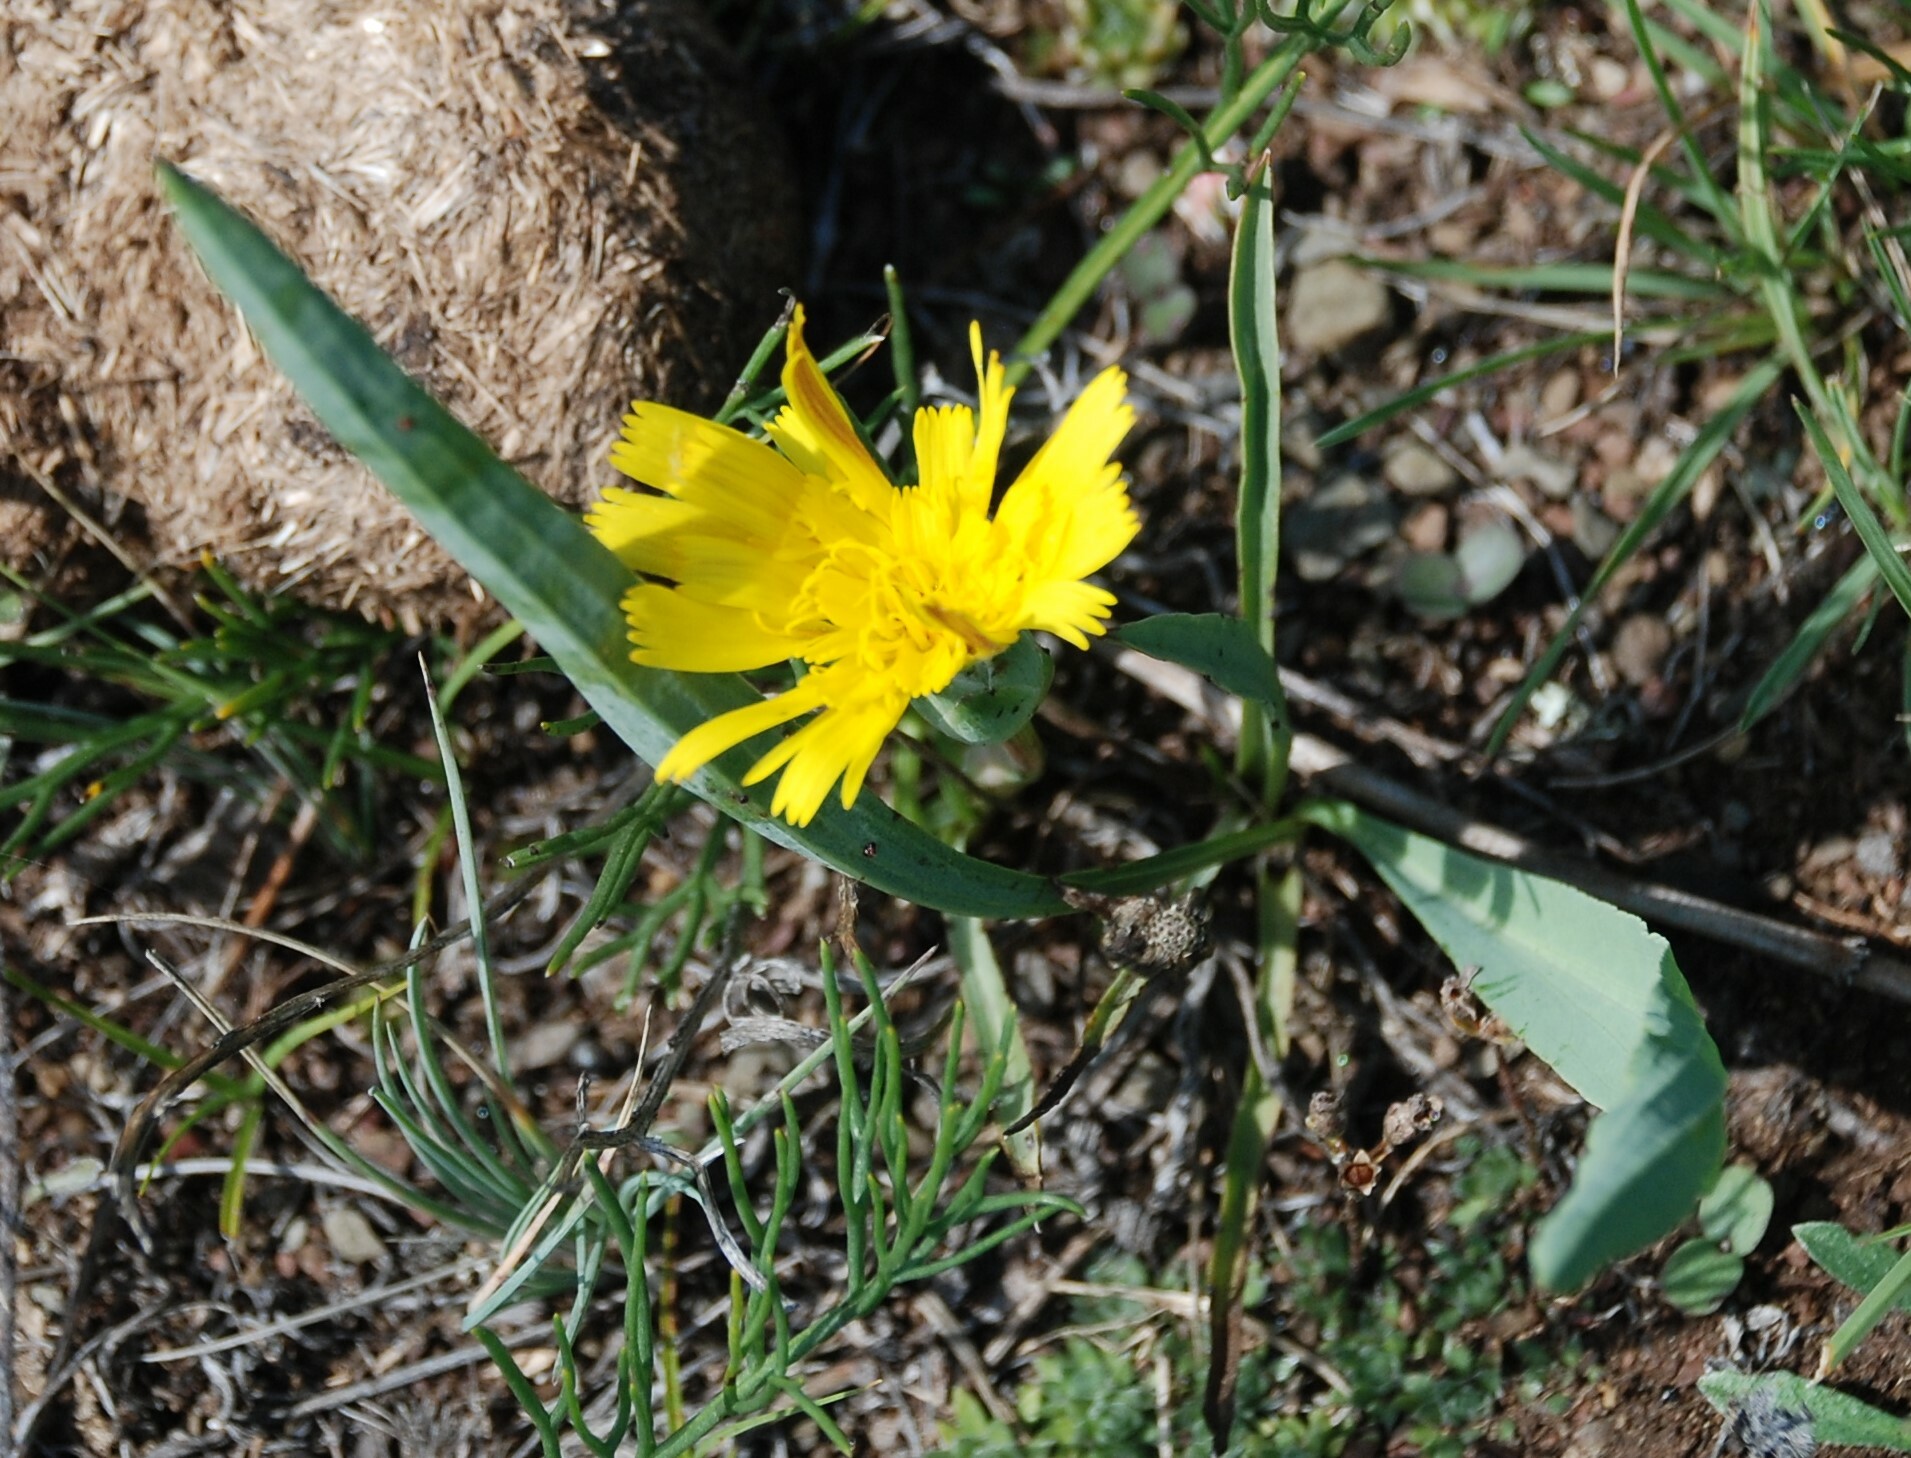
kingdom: Plantae
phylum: Tracheophyta
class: Magnoliopsida
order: Asterales
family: Asteraceae
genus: Takhtajaniantha
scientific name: Takhtajaniantha austriaca
